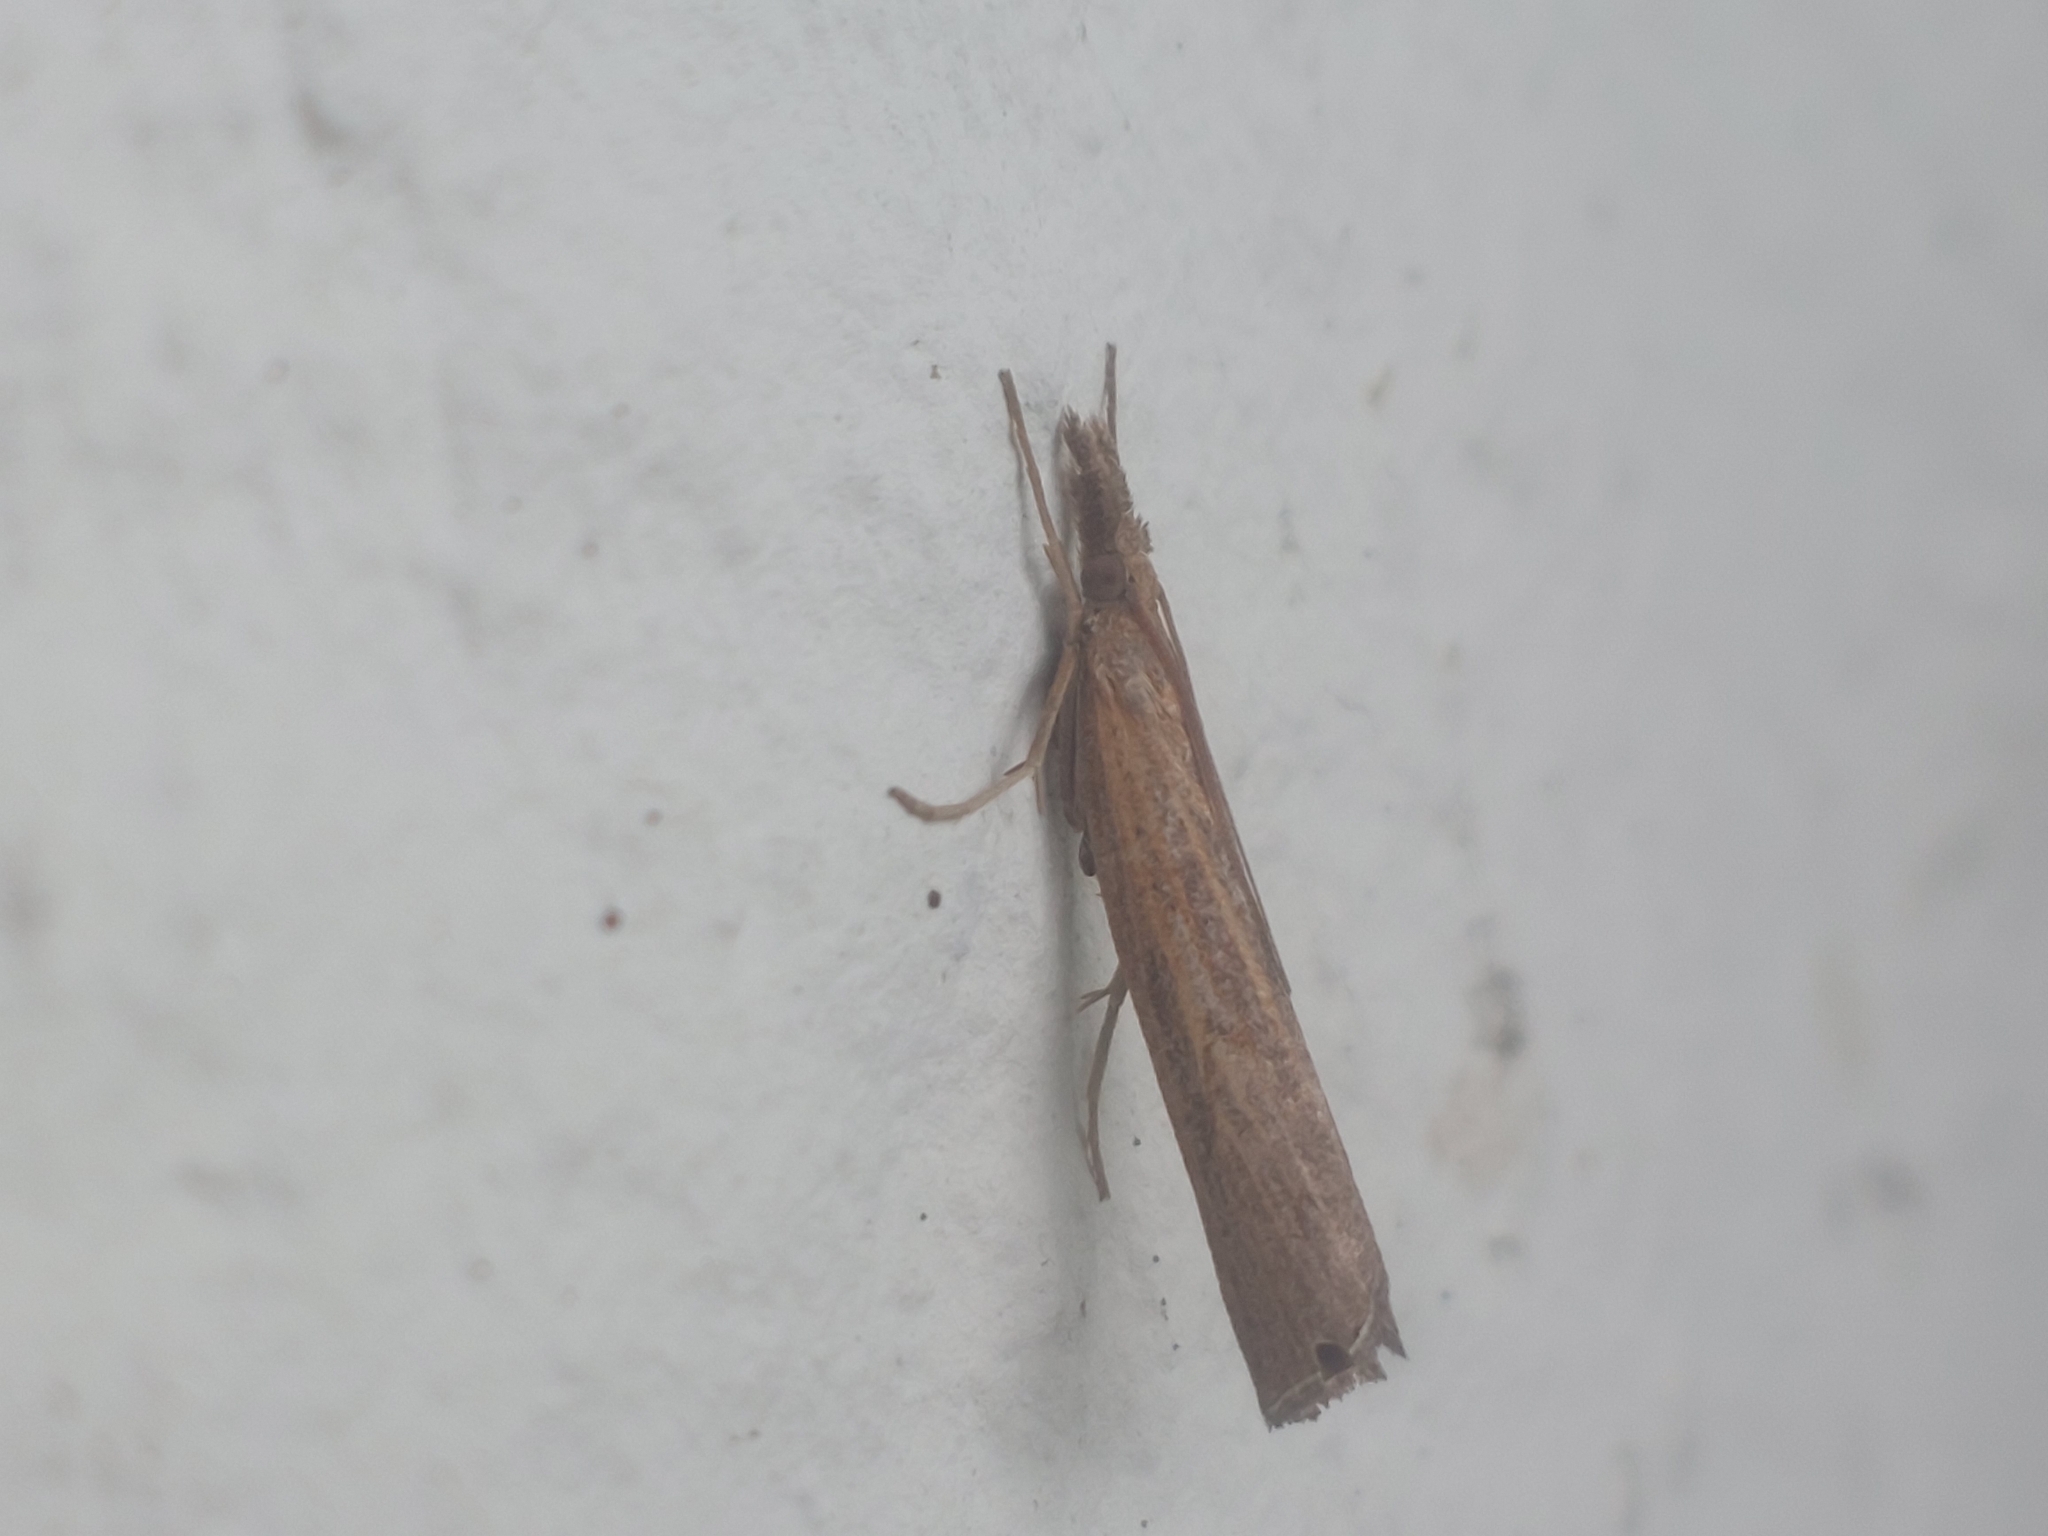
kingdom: Animalia
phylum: Arthropoda
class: Insecta
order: Lepidoptera
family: Crambidae
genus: Pediasia
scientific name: Pediasia contaminella
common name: Waste grass-veneer
